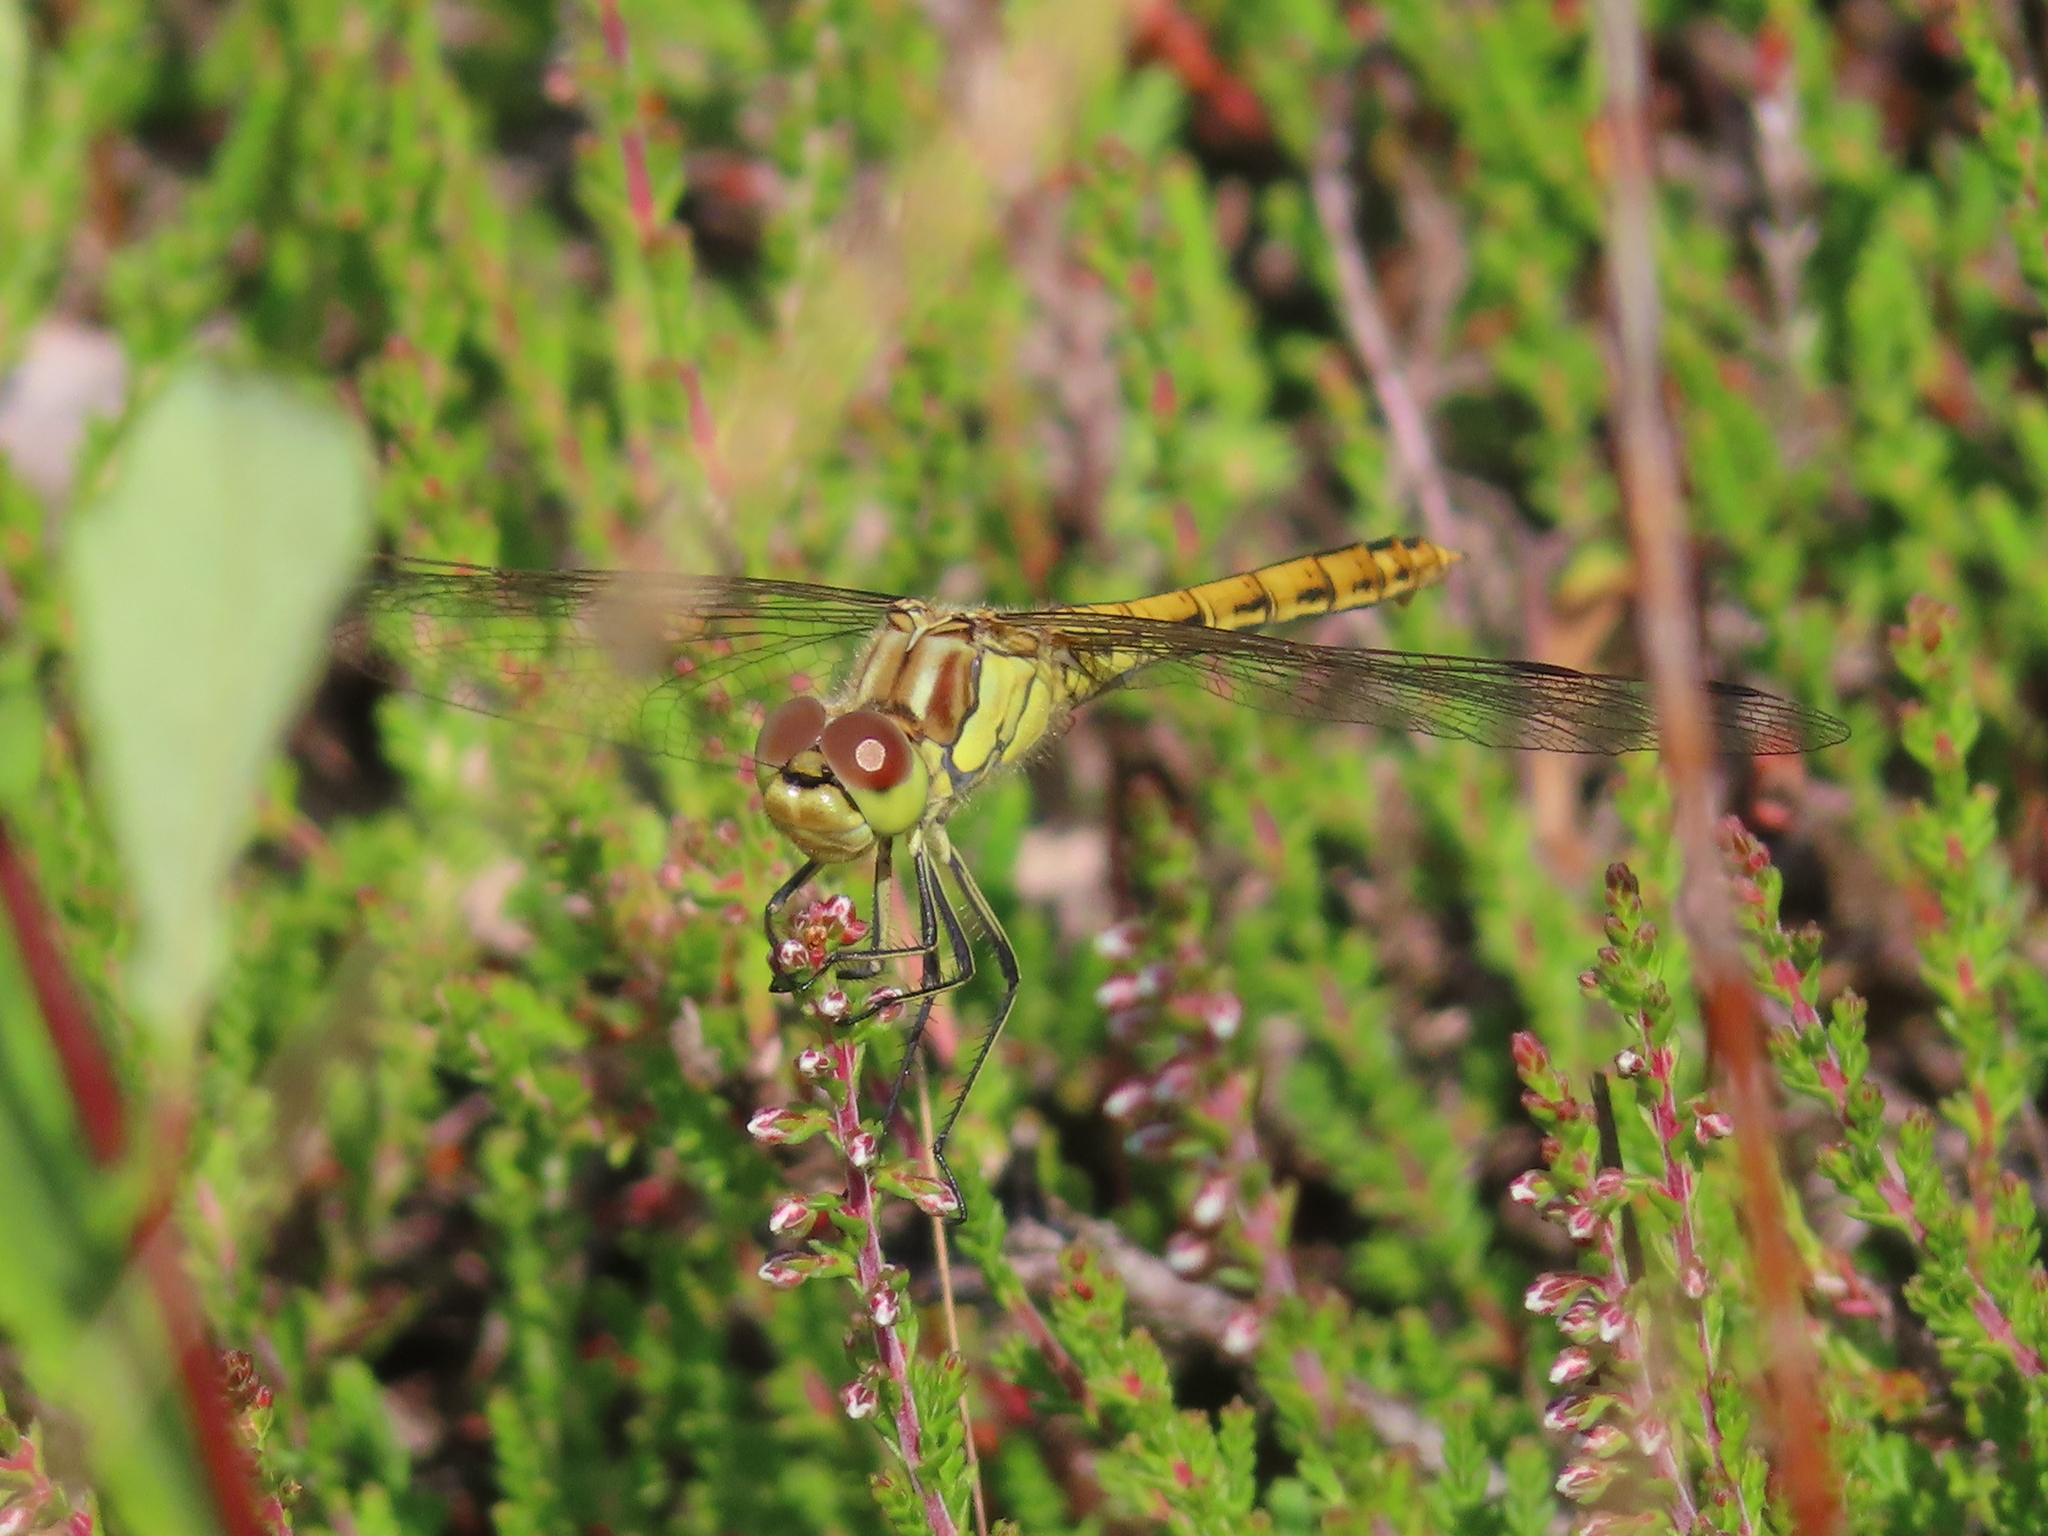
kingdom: Animalia
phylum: Arthropoda
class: Insecta
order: Odonata
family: Libellulidae
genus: Sympetrum
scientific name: Sympetrum vulgatum
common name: Vagrant darter
